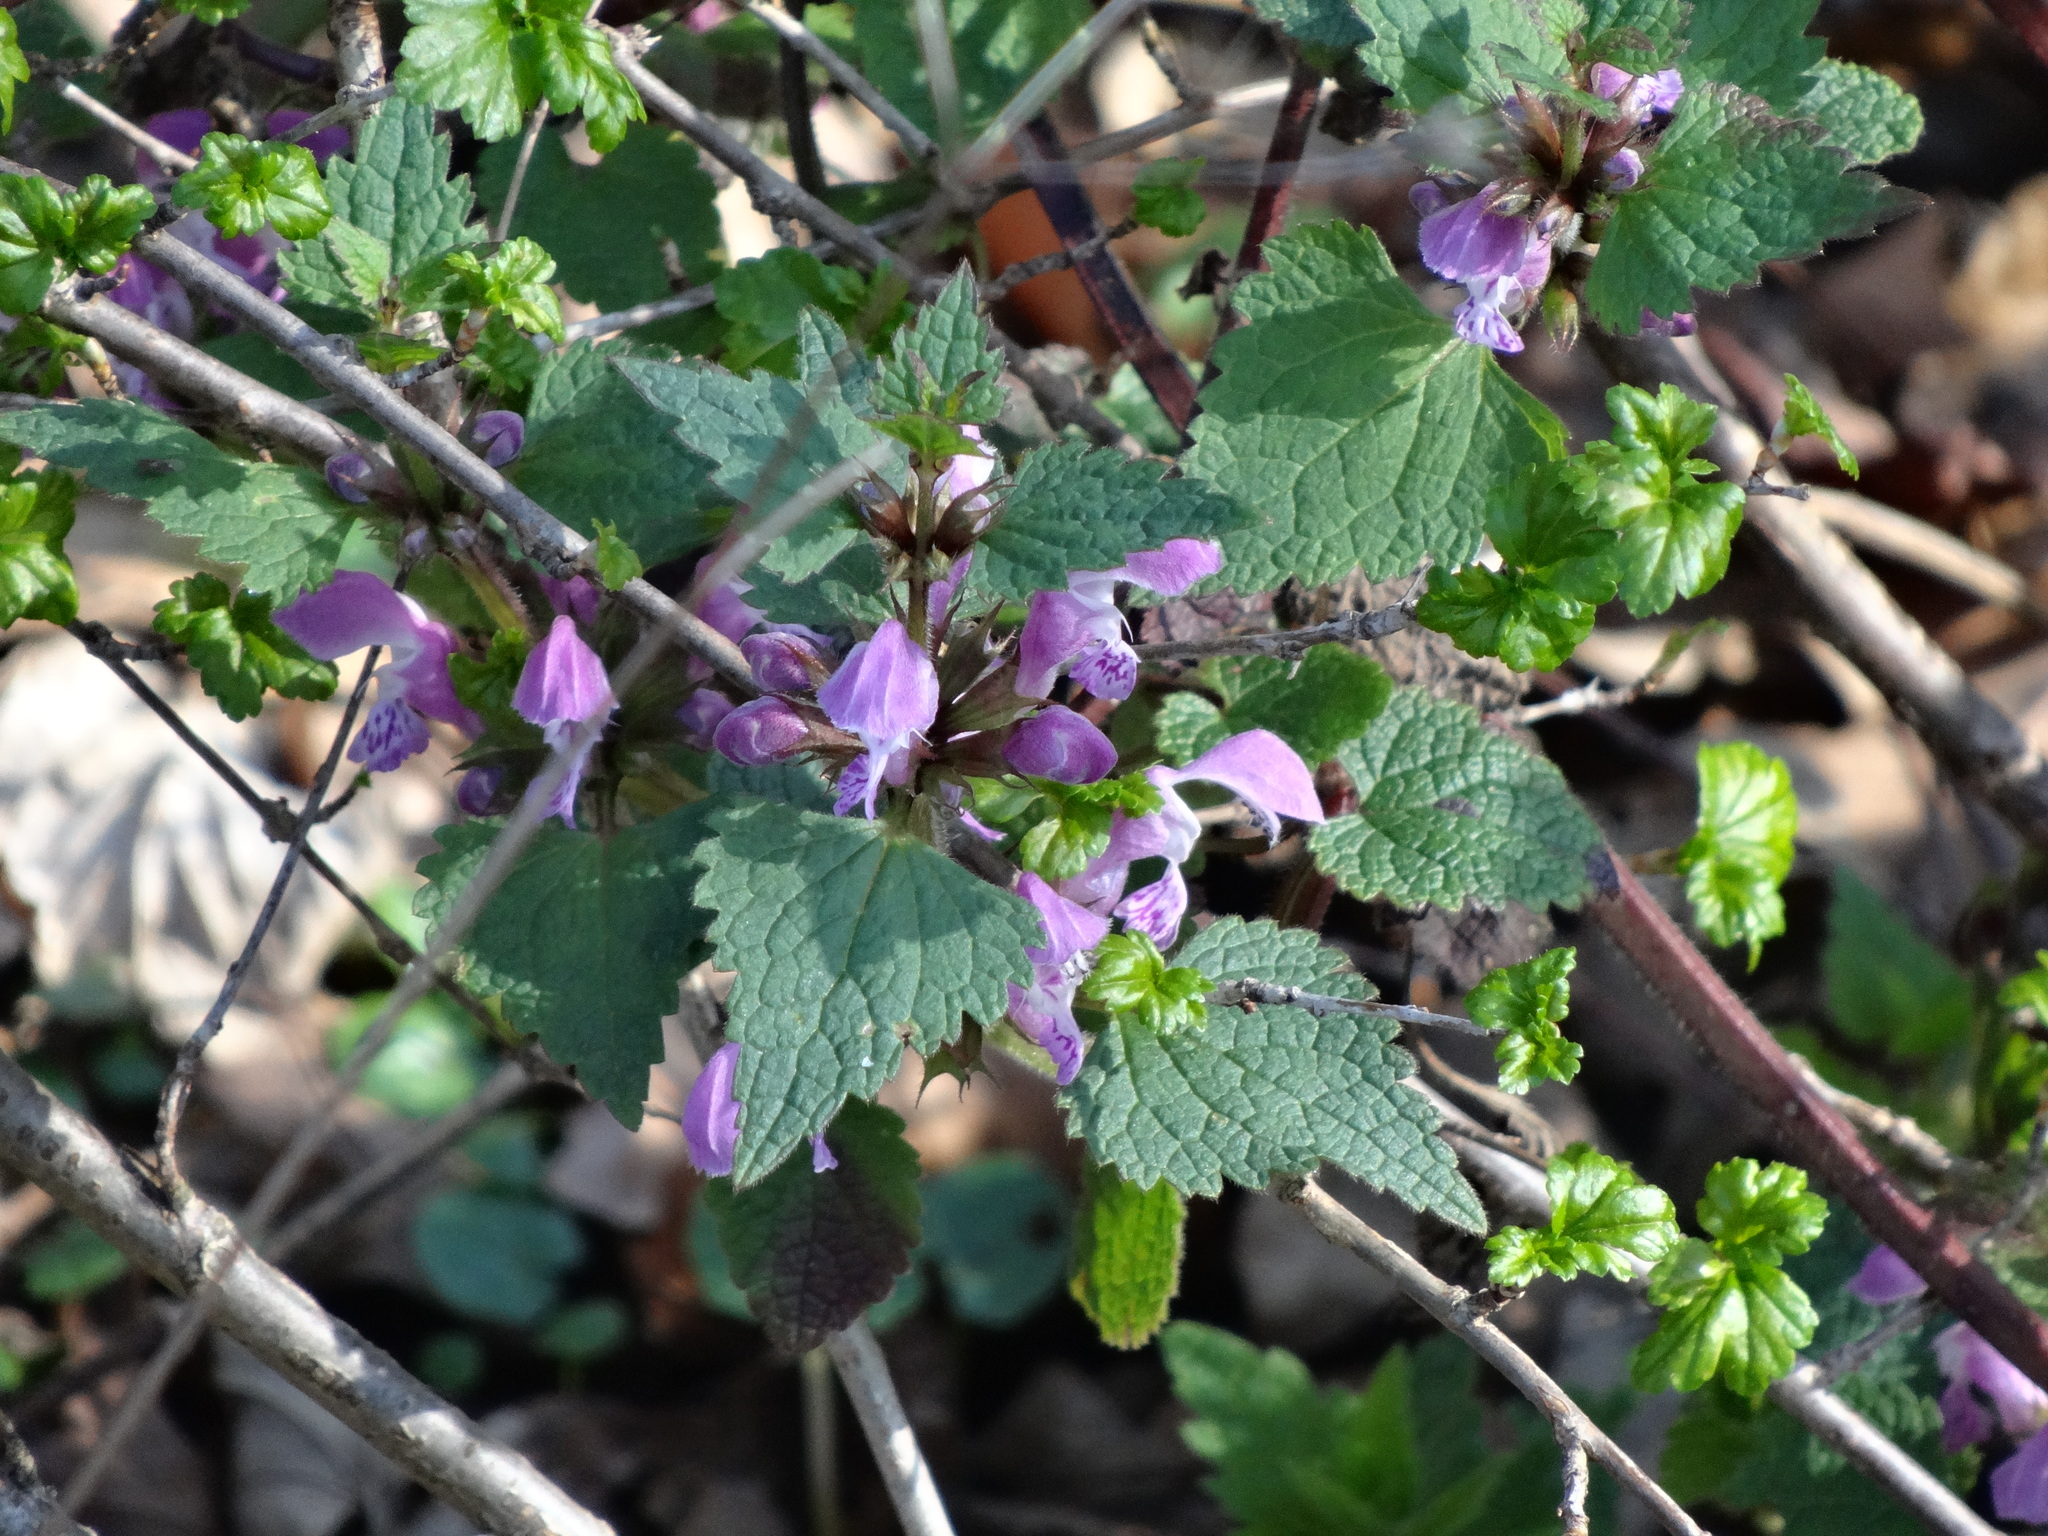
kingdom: Plantae
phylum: Tracheophyta
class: Magnoliopsida
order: Lamiales
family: Lamiaceae
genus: Lamium
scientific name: Lamium maculatum
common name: Spotted dead-nettle
